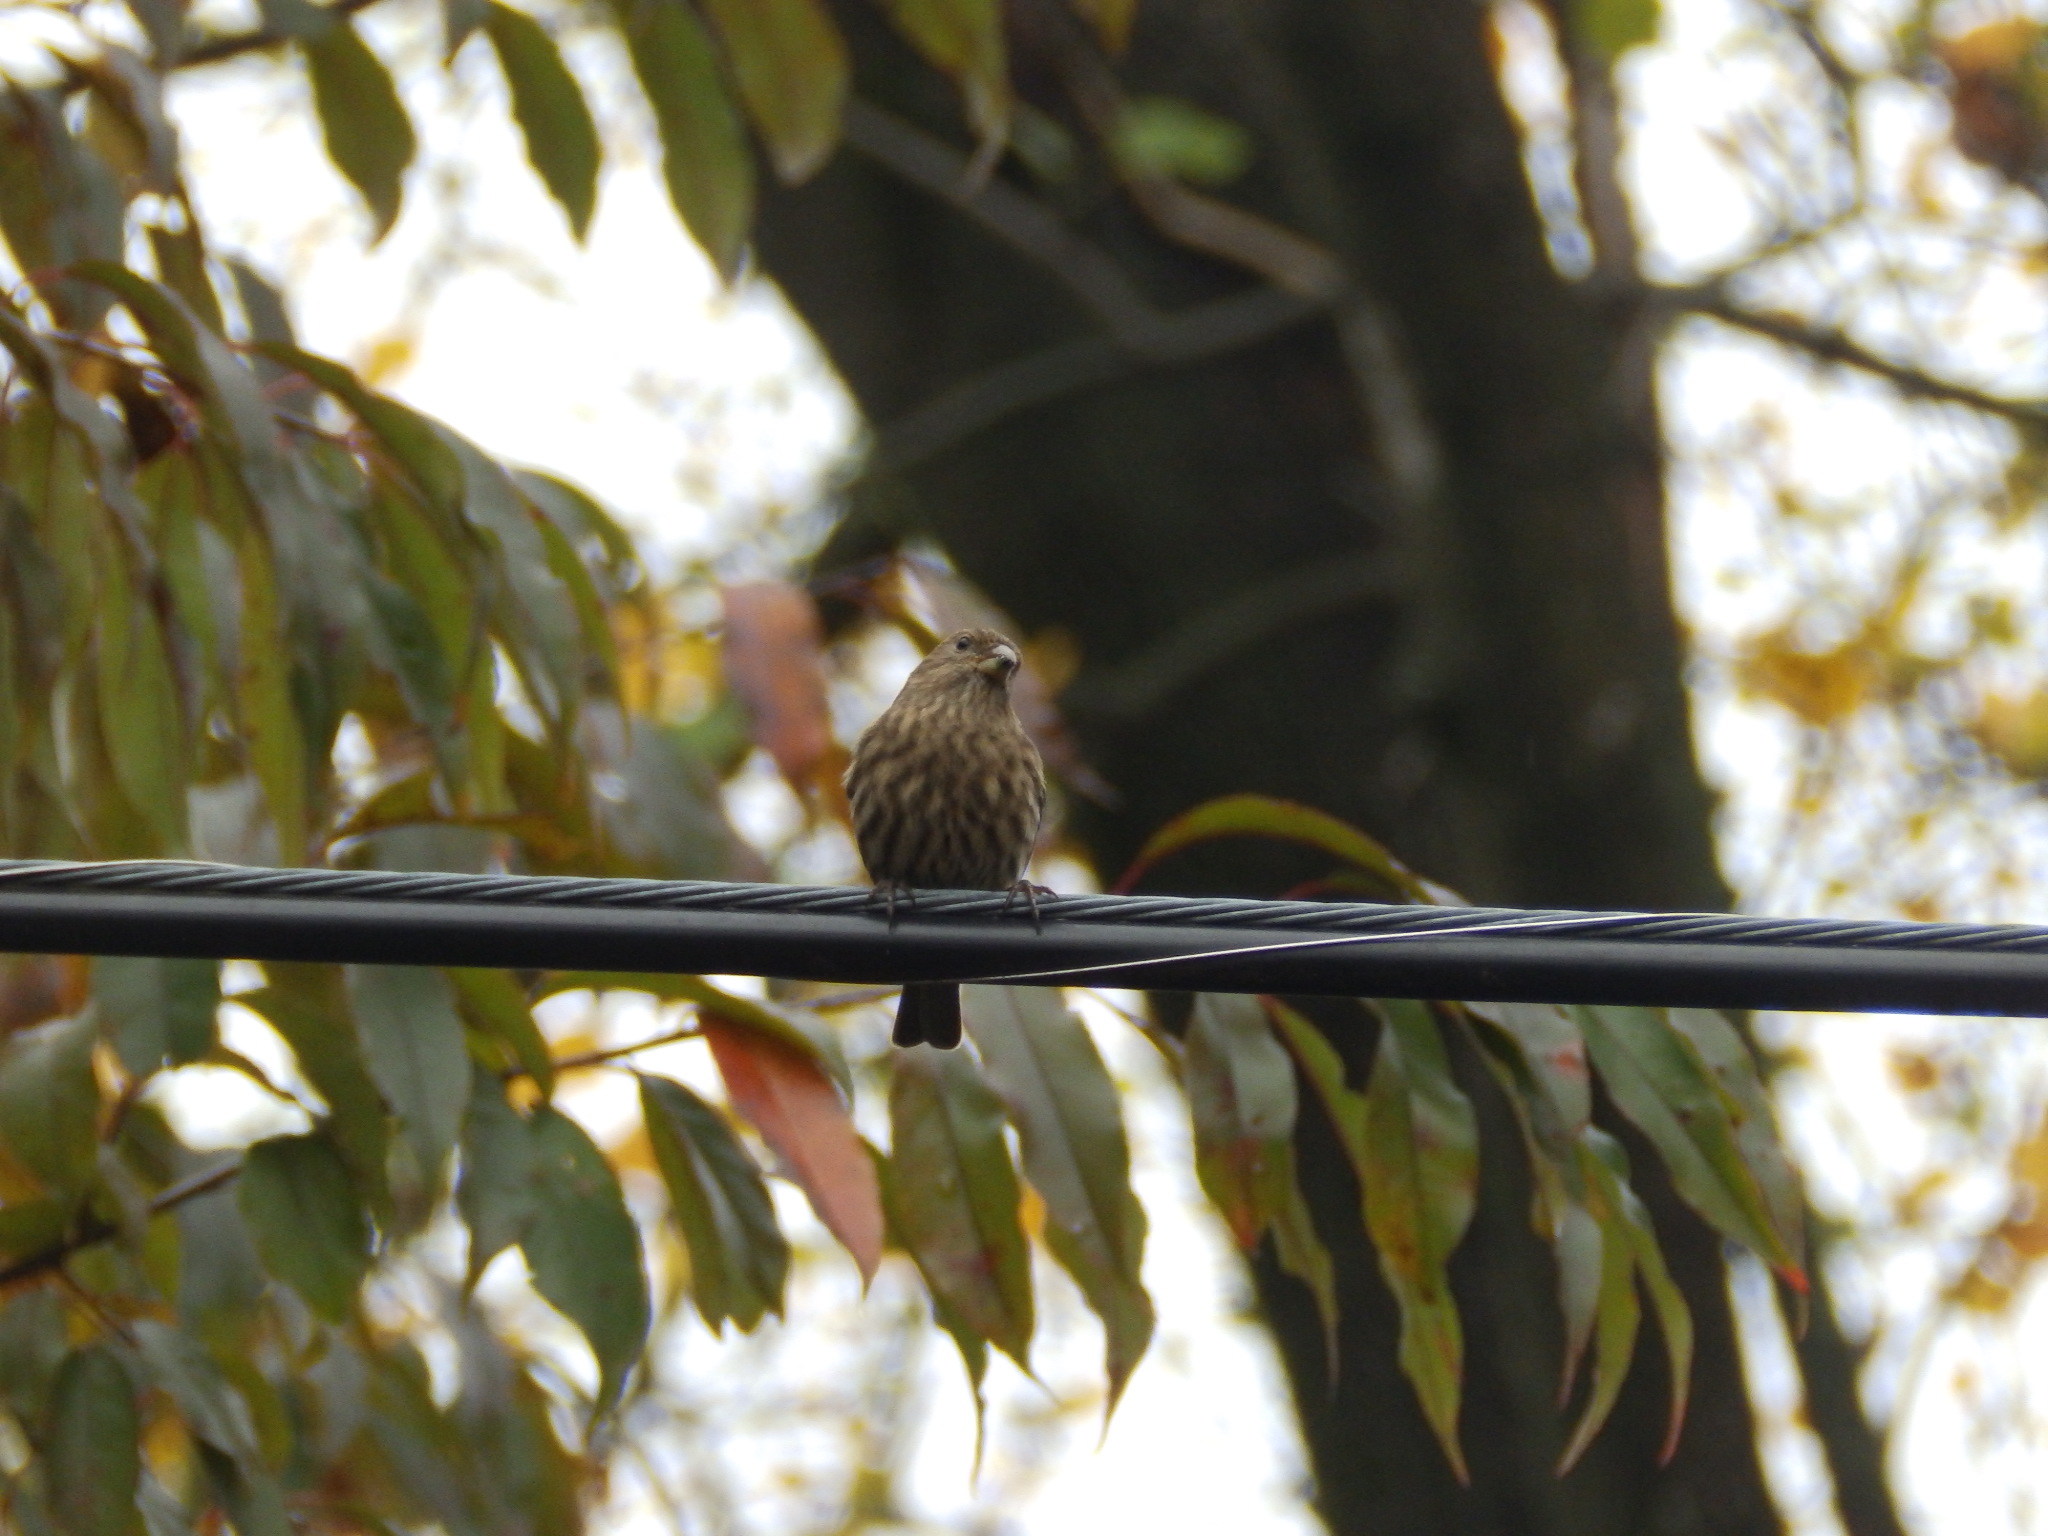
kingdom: Animalia
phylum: Chordata
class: Aves
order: Passeriformes
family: Fringillidae
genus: Haemorhous
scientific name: Haemorhous mexicanus
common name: House finch
